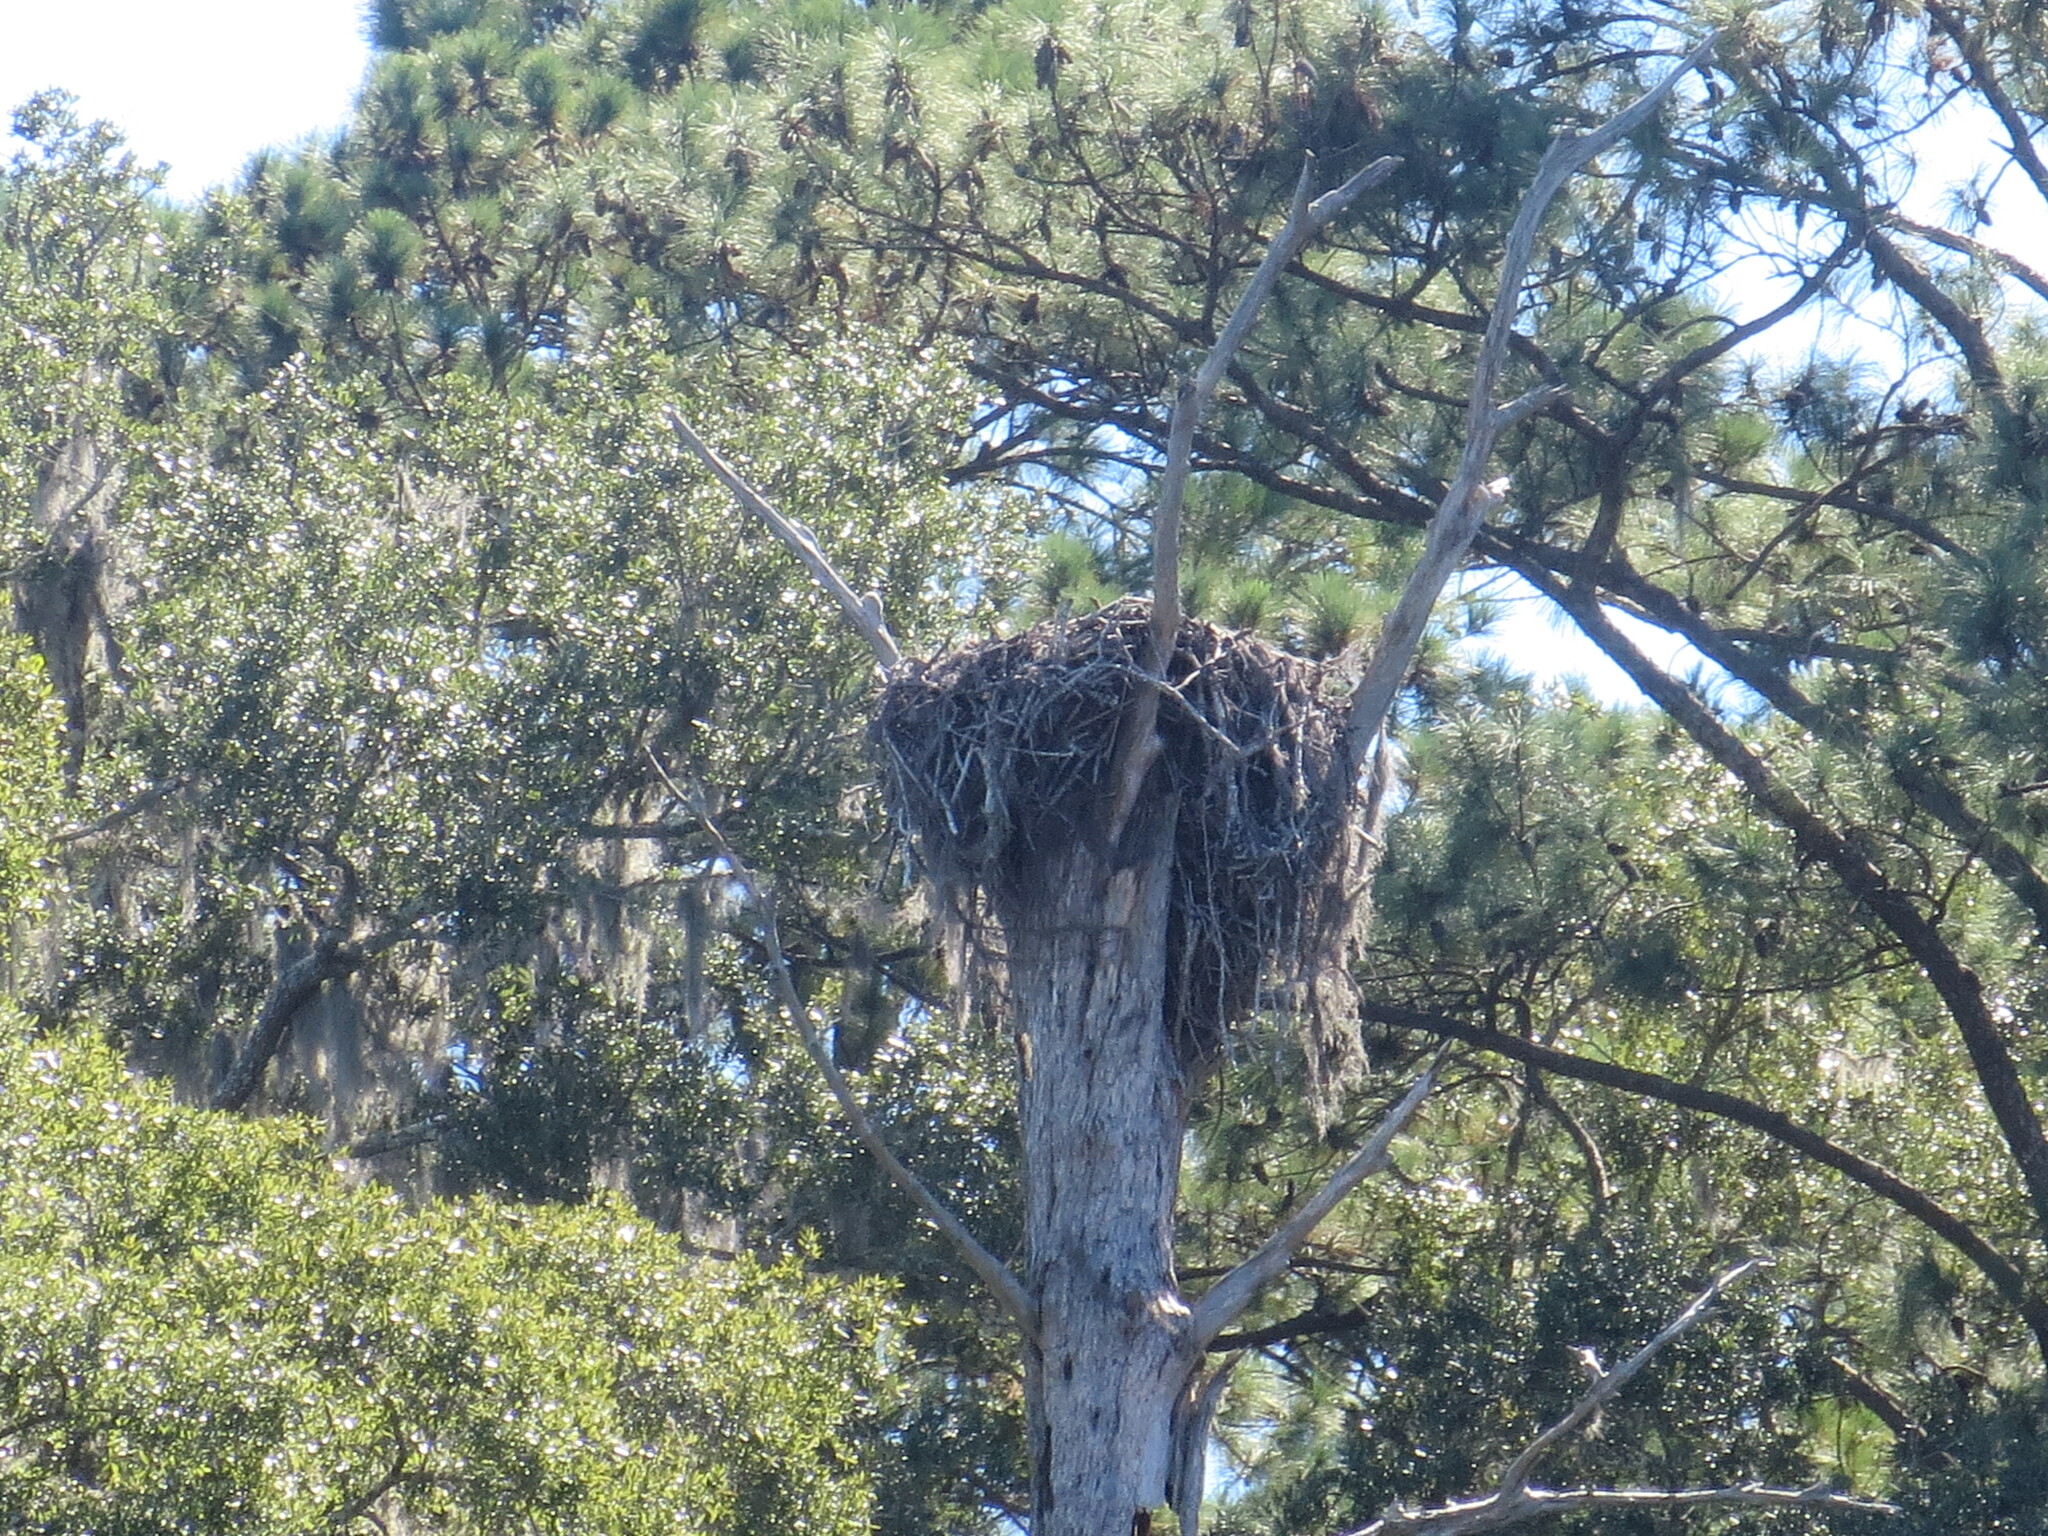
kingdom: Animalia
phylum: Chordata
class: Aves
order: Accipitriformes
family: Accipitridae
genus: Haliaeetus
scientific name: Haliaeetus leucocephalus
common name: Bald eagle
